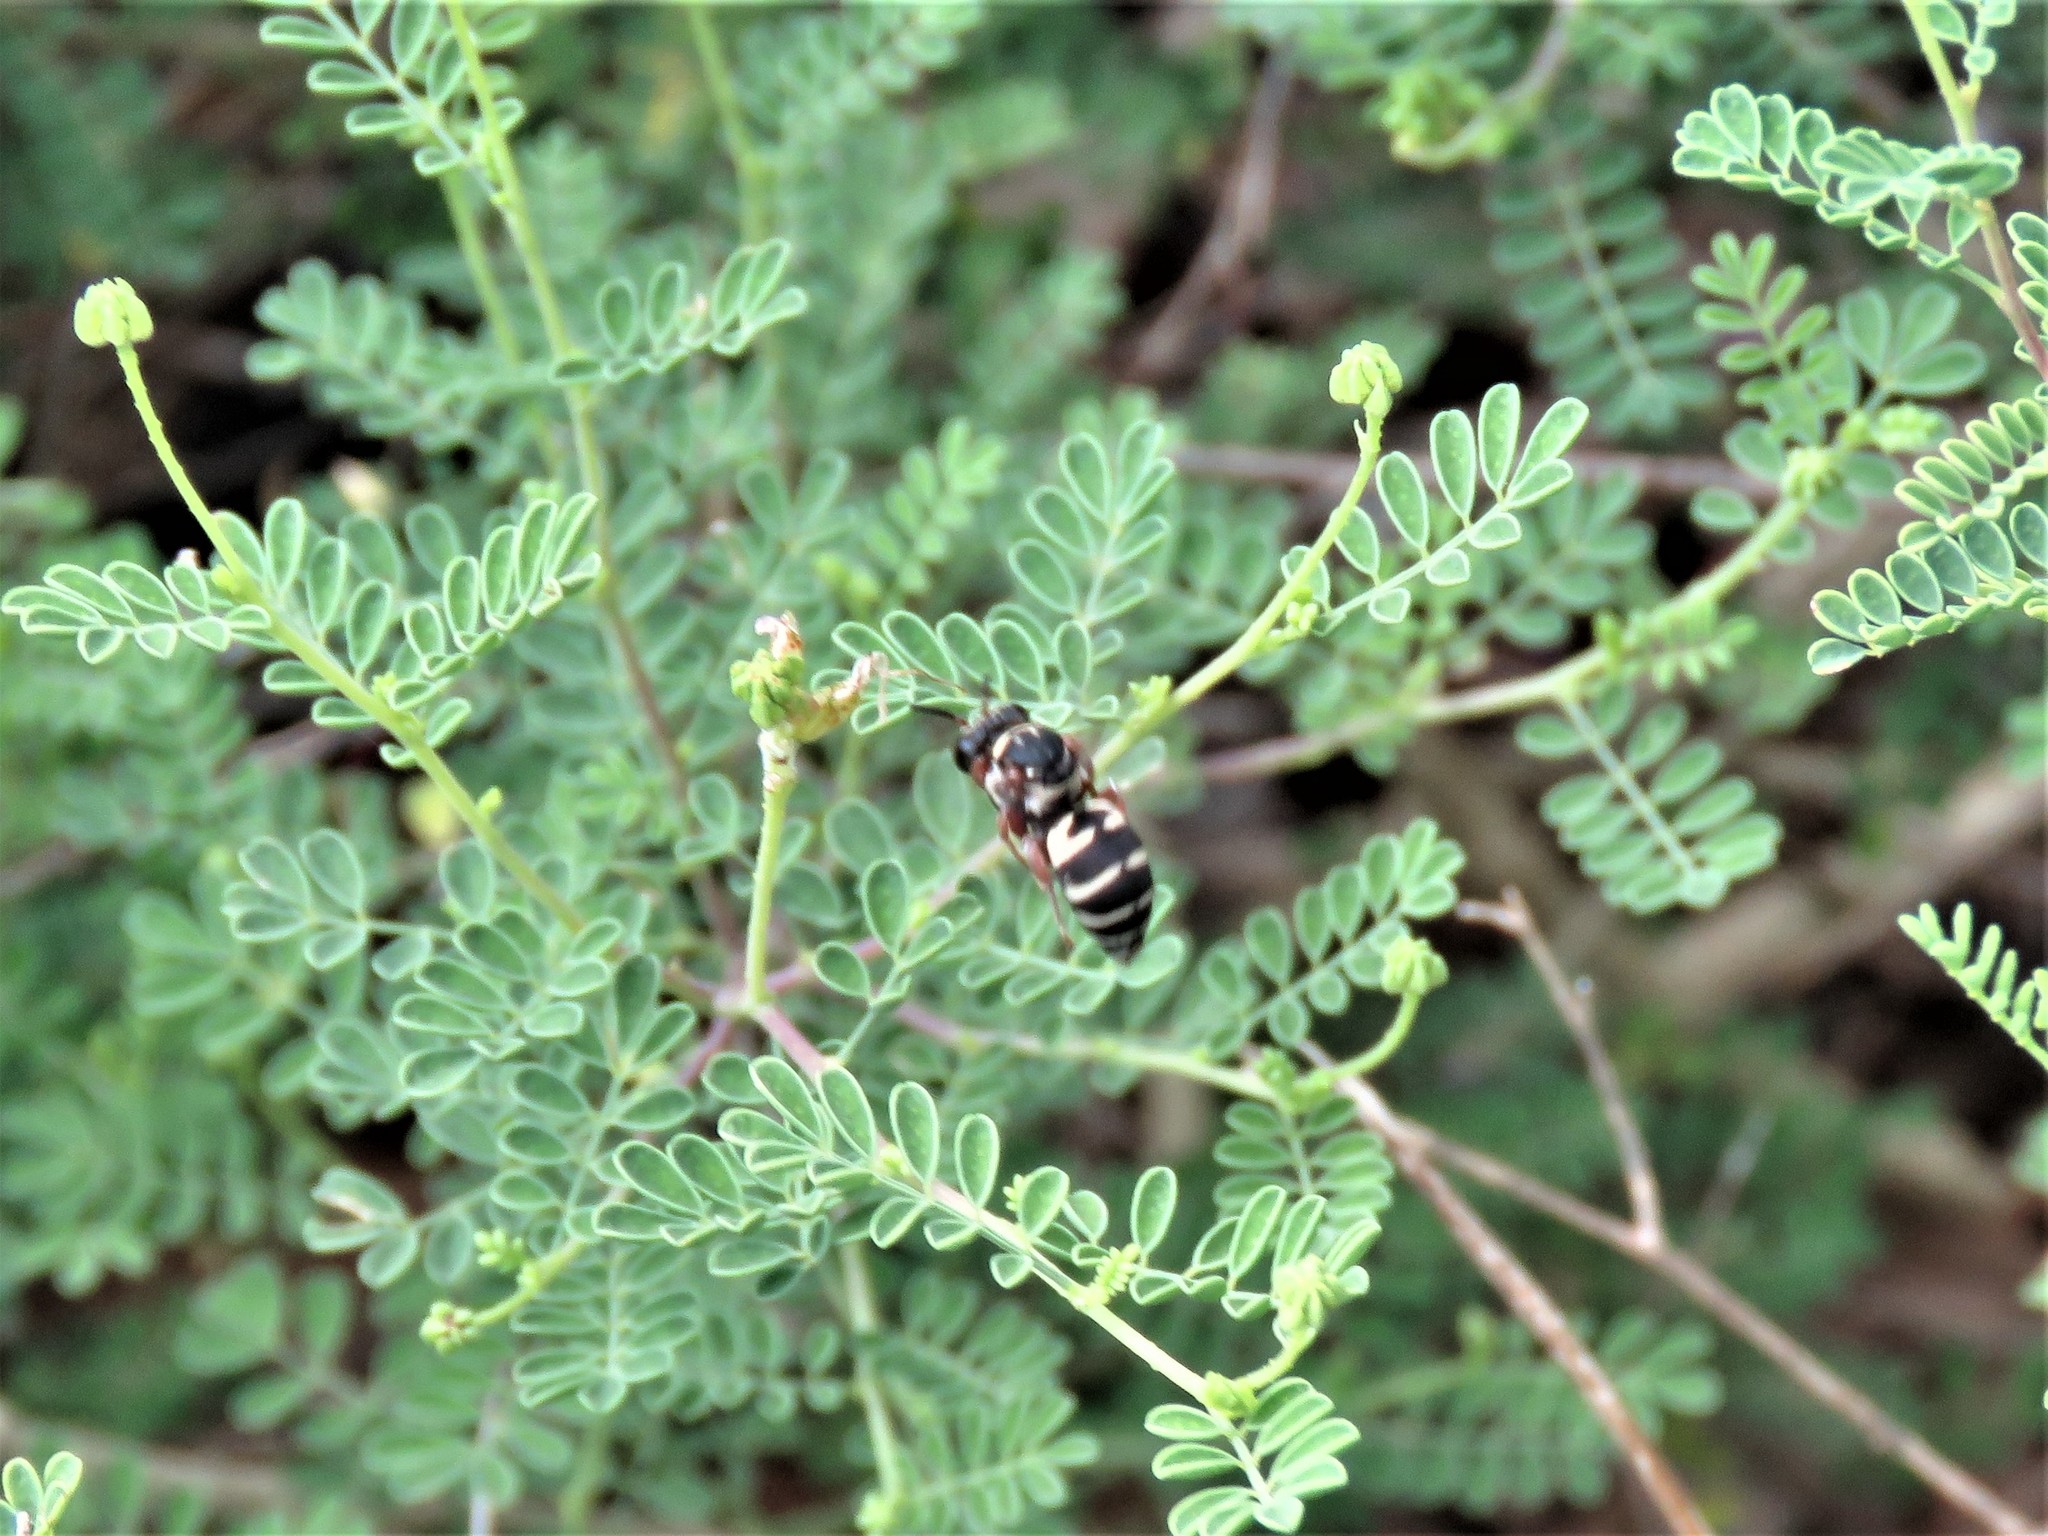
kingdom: Animalia
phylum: Arthropoda
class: Insecta
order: Hymenoptera
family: Apidae
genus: Triepeolus
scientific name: Triepeolus lunatus
